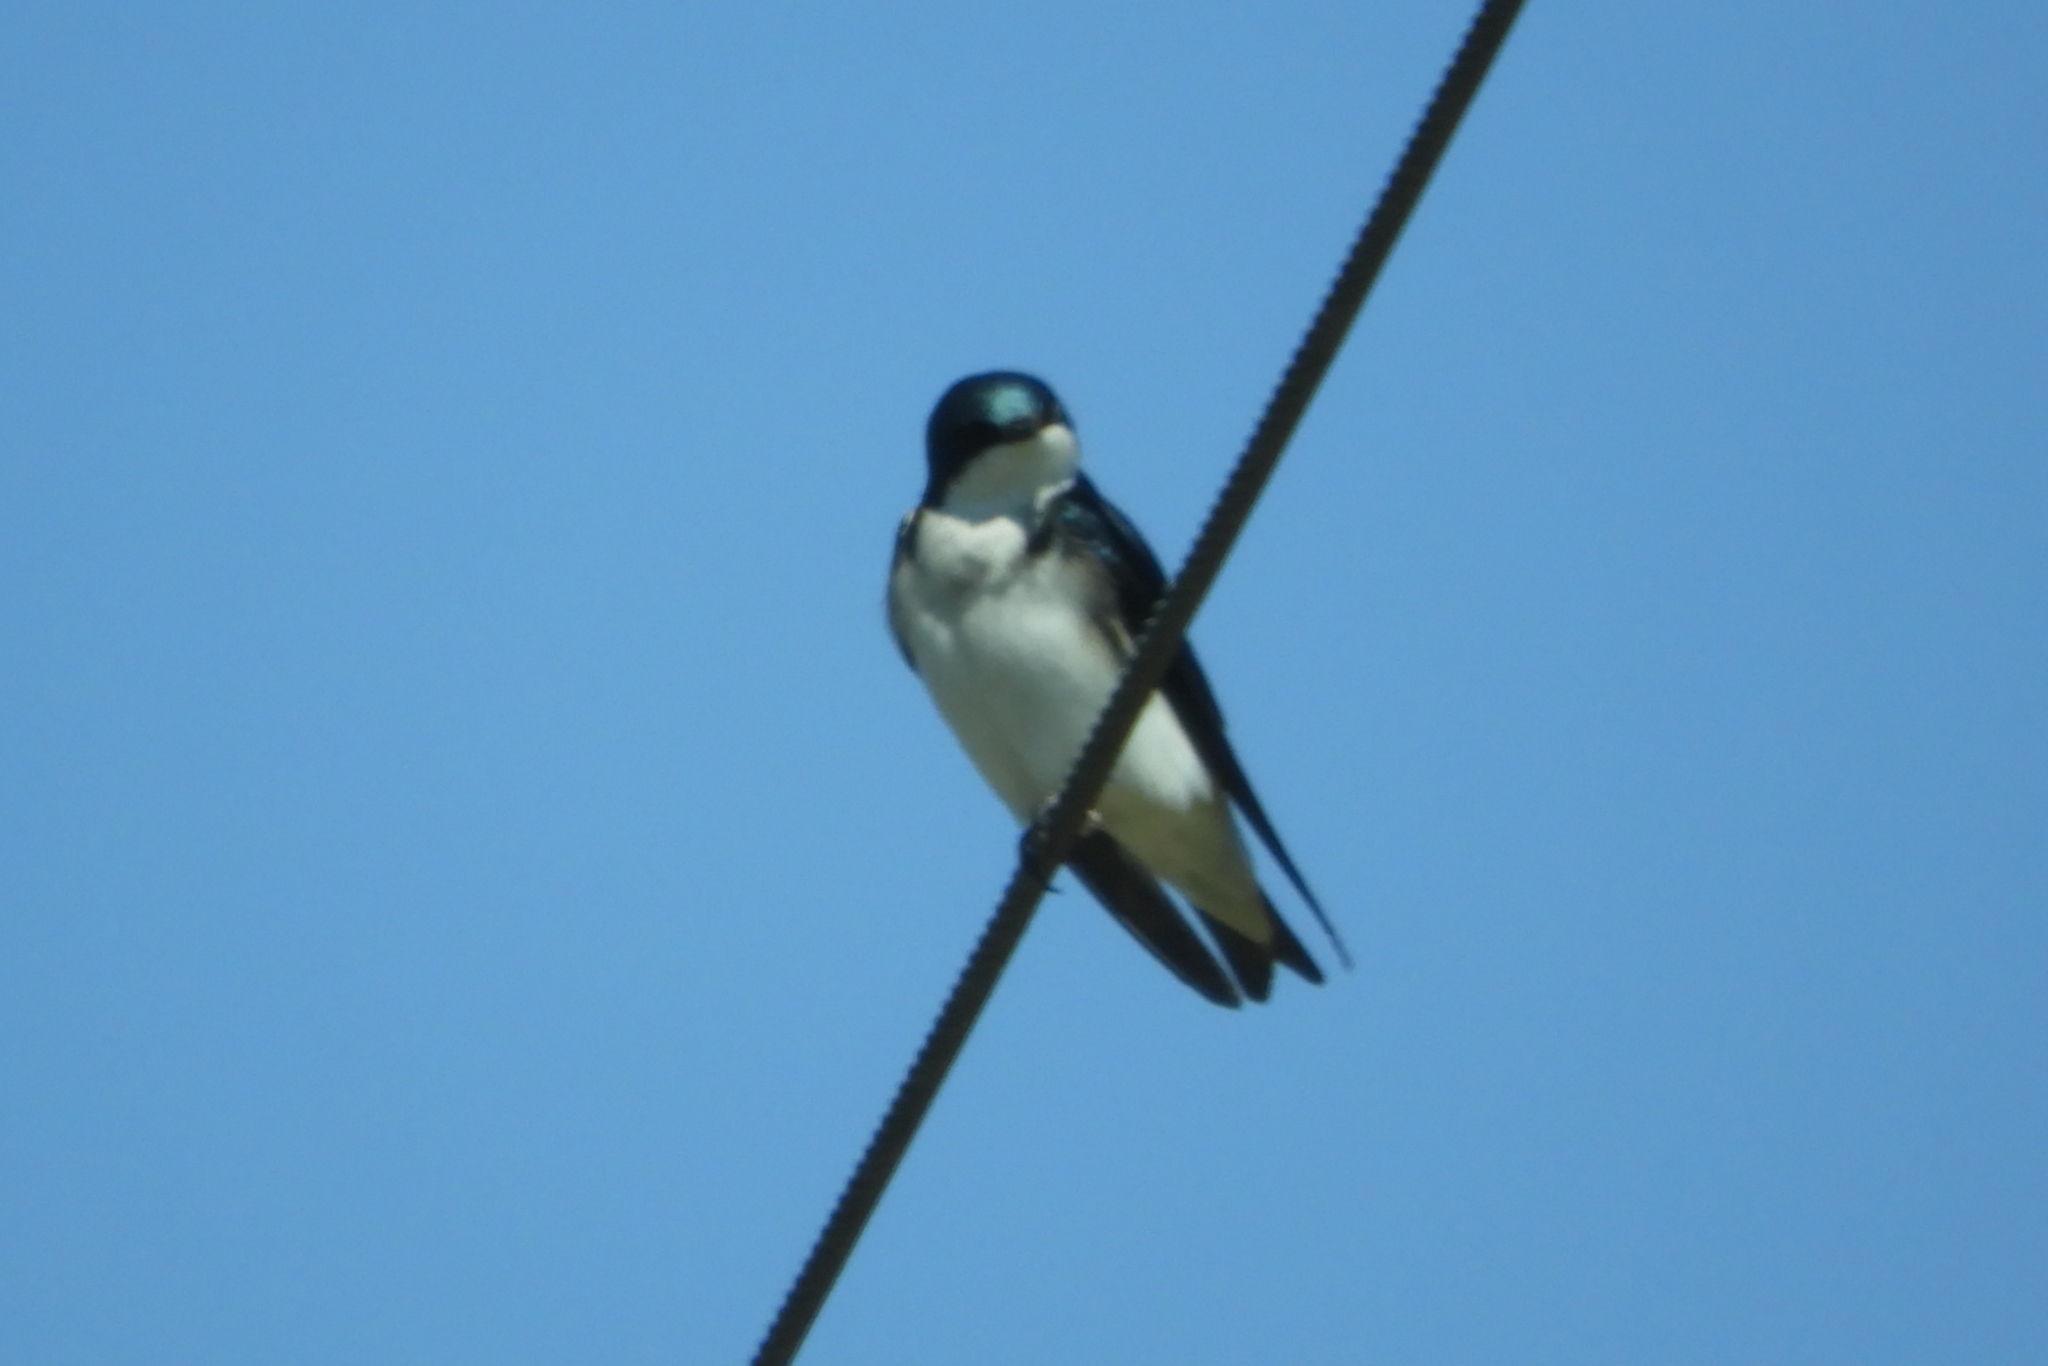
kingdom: Animalia
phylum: Chordata
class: Aves
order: Passeriformes
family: Hirundinidae
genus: Tachycineta
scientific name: Tachycineta bicolor
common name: Tree swallow
